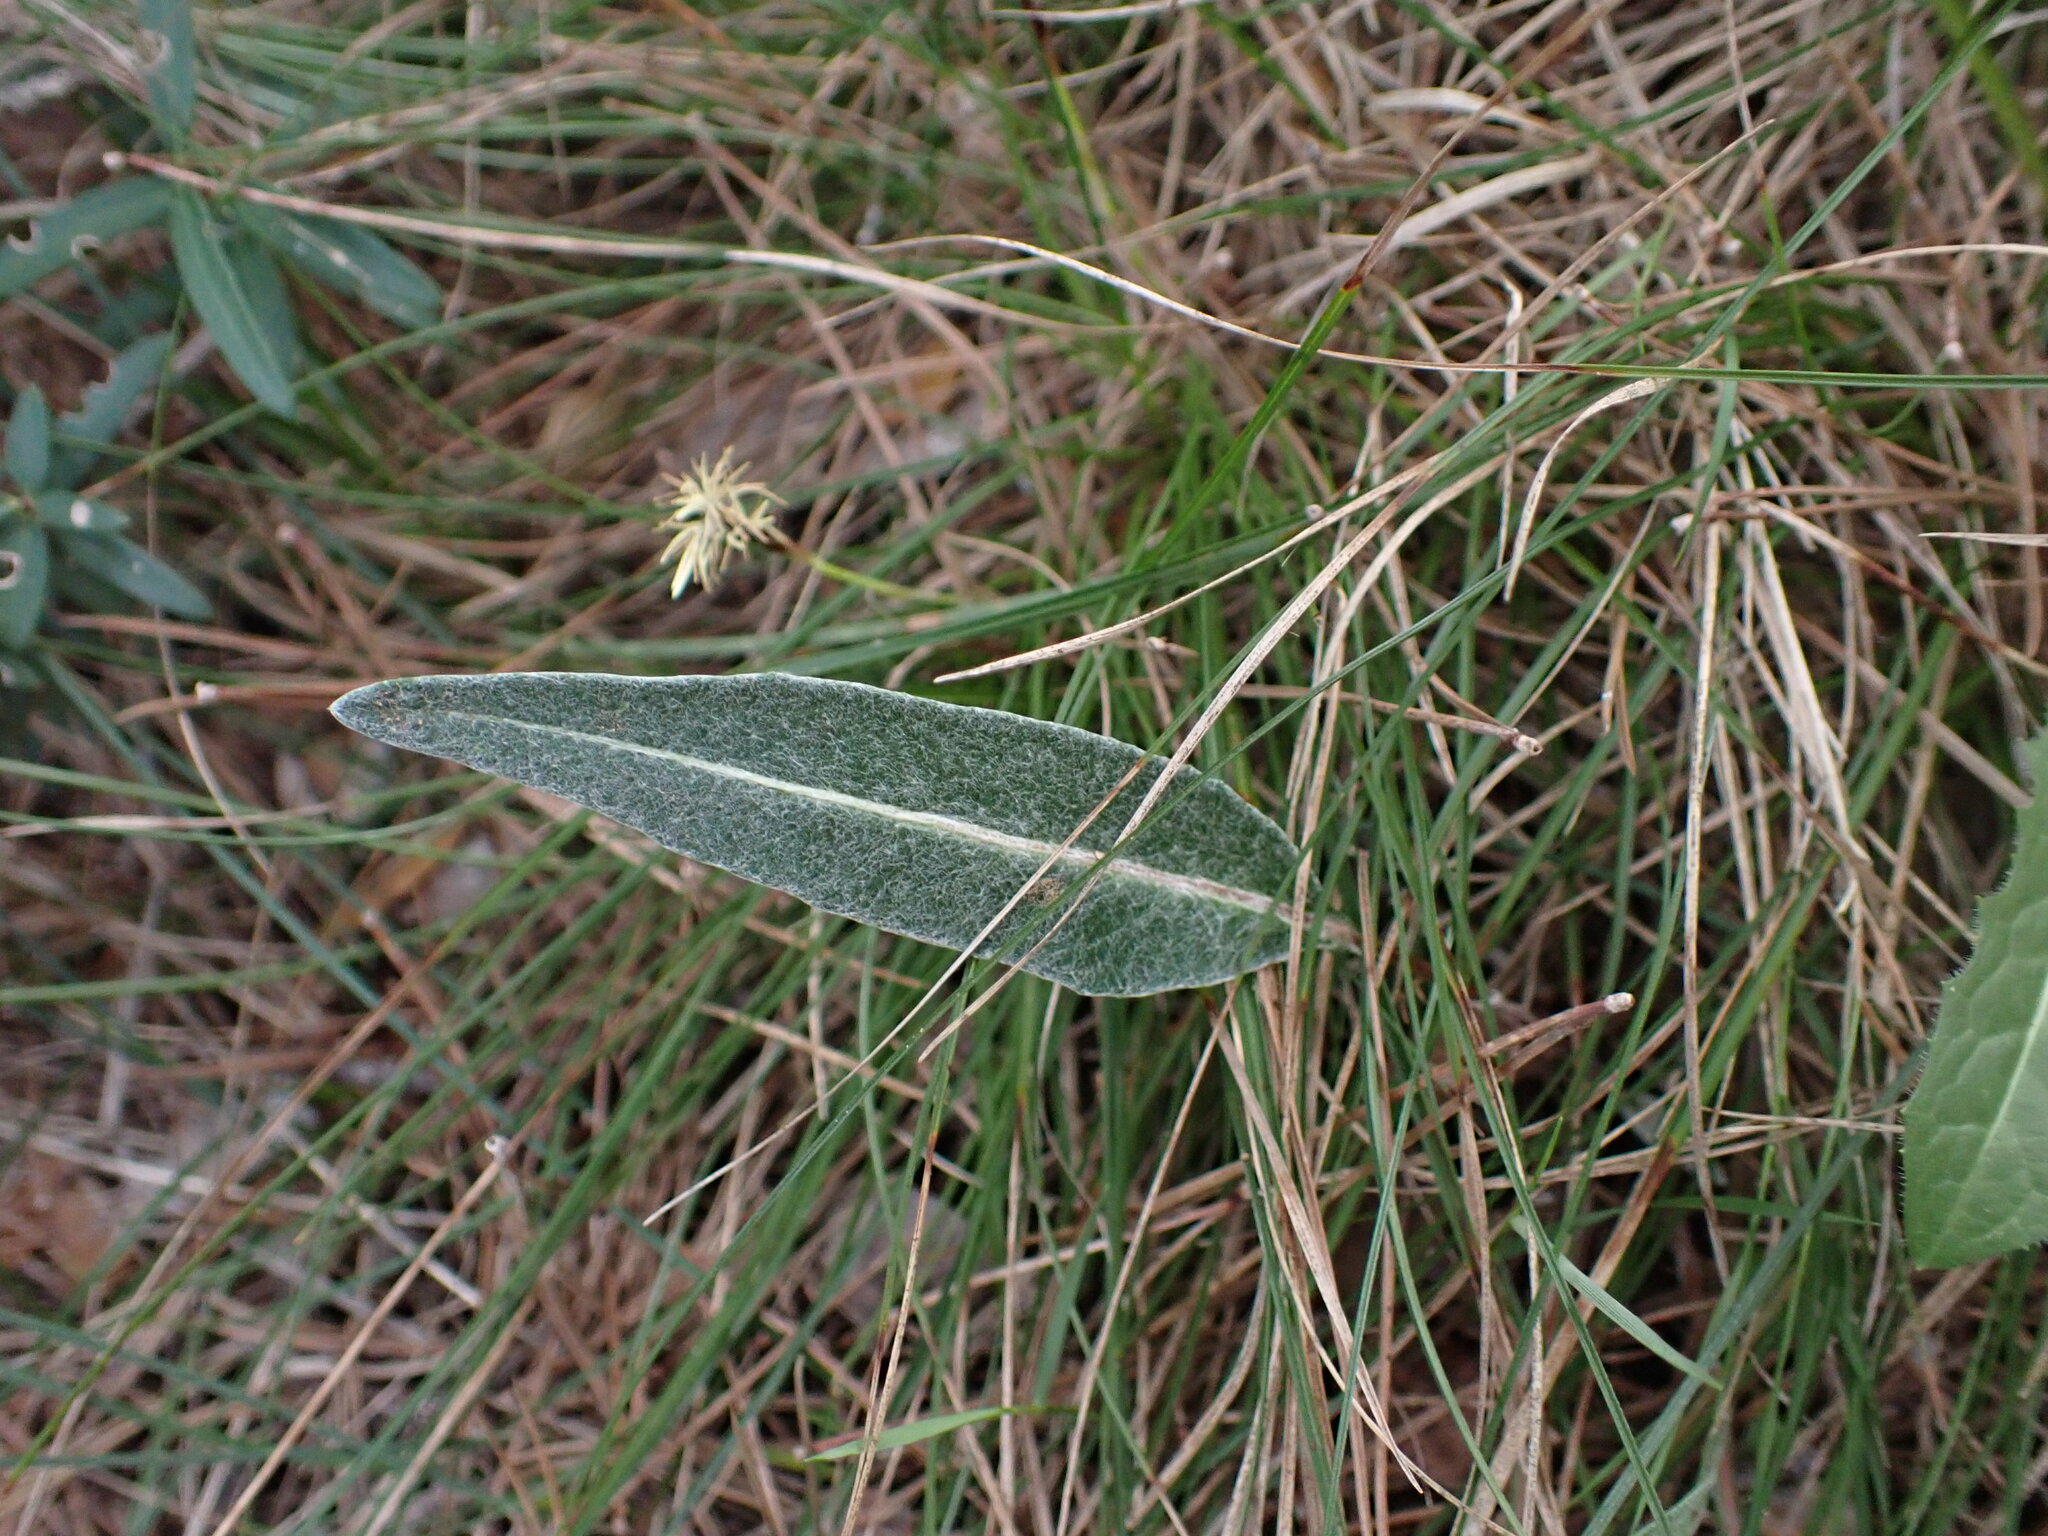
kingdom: Plantae
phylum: Tracheophyta
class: Magnoliopsida
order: Asterales
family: Asteraceae
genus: Leuzea
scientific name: Leuzea conifera
